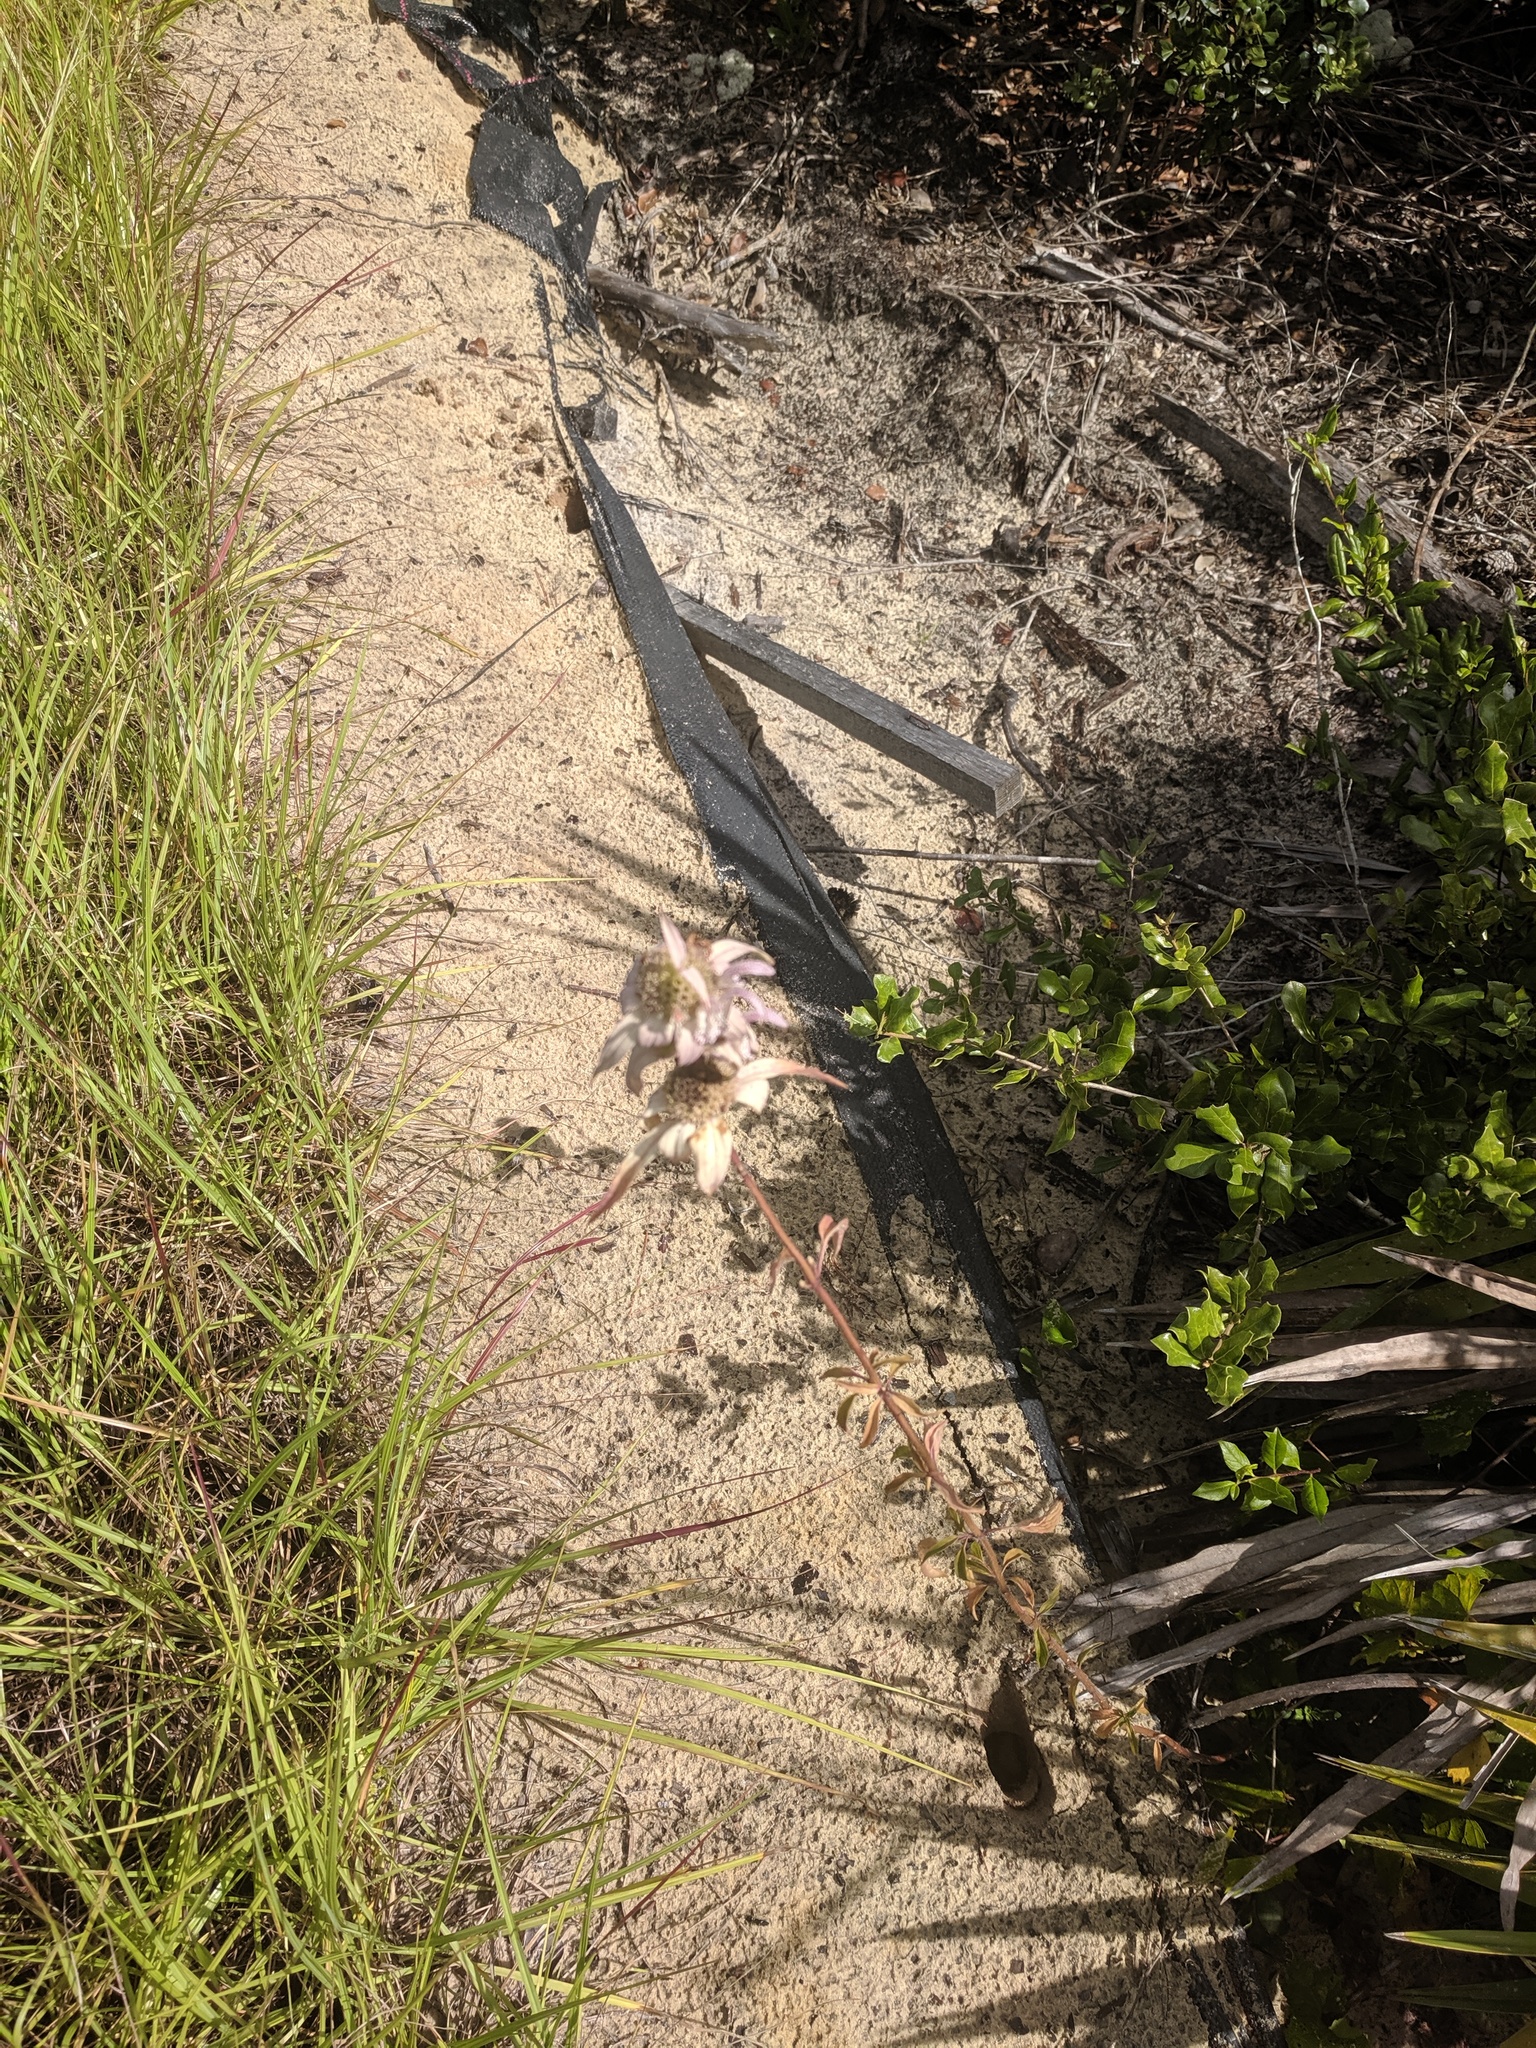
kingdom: Plantae
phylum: Tracheophyta
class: Magnoliopsida
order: Lamiales
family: Lamiaceae
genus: Monarda
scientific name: Monarda punctata
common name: Dotted monarda
